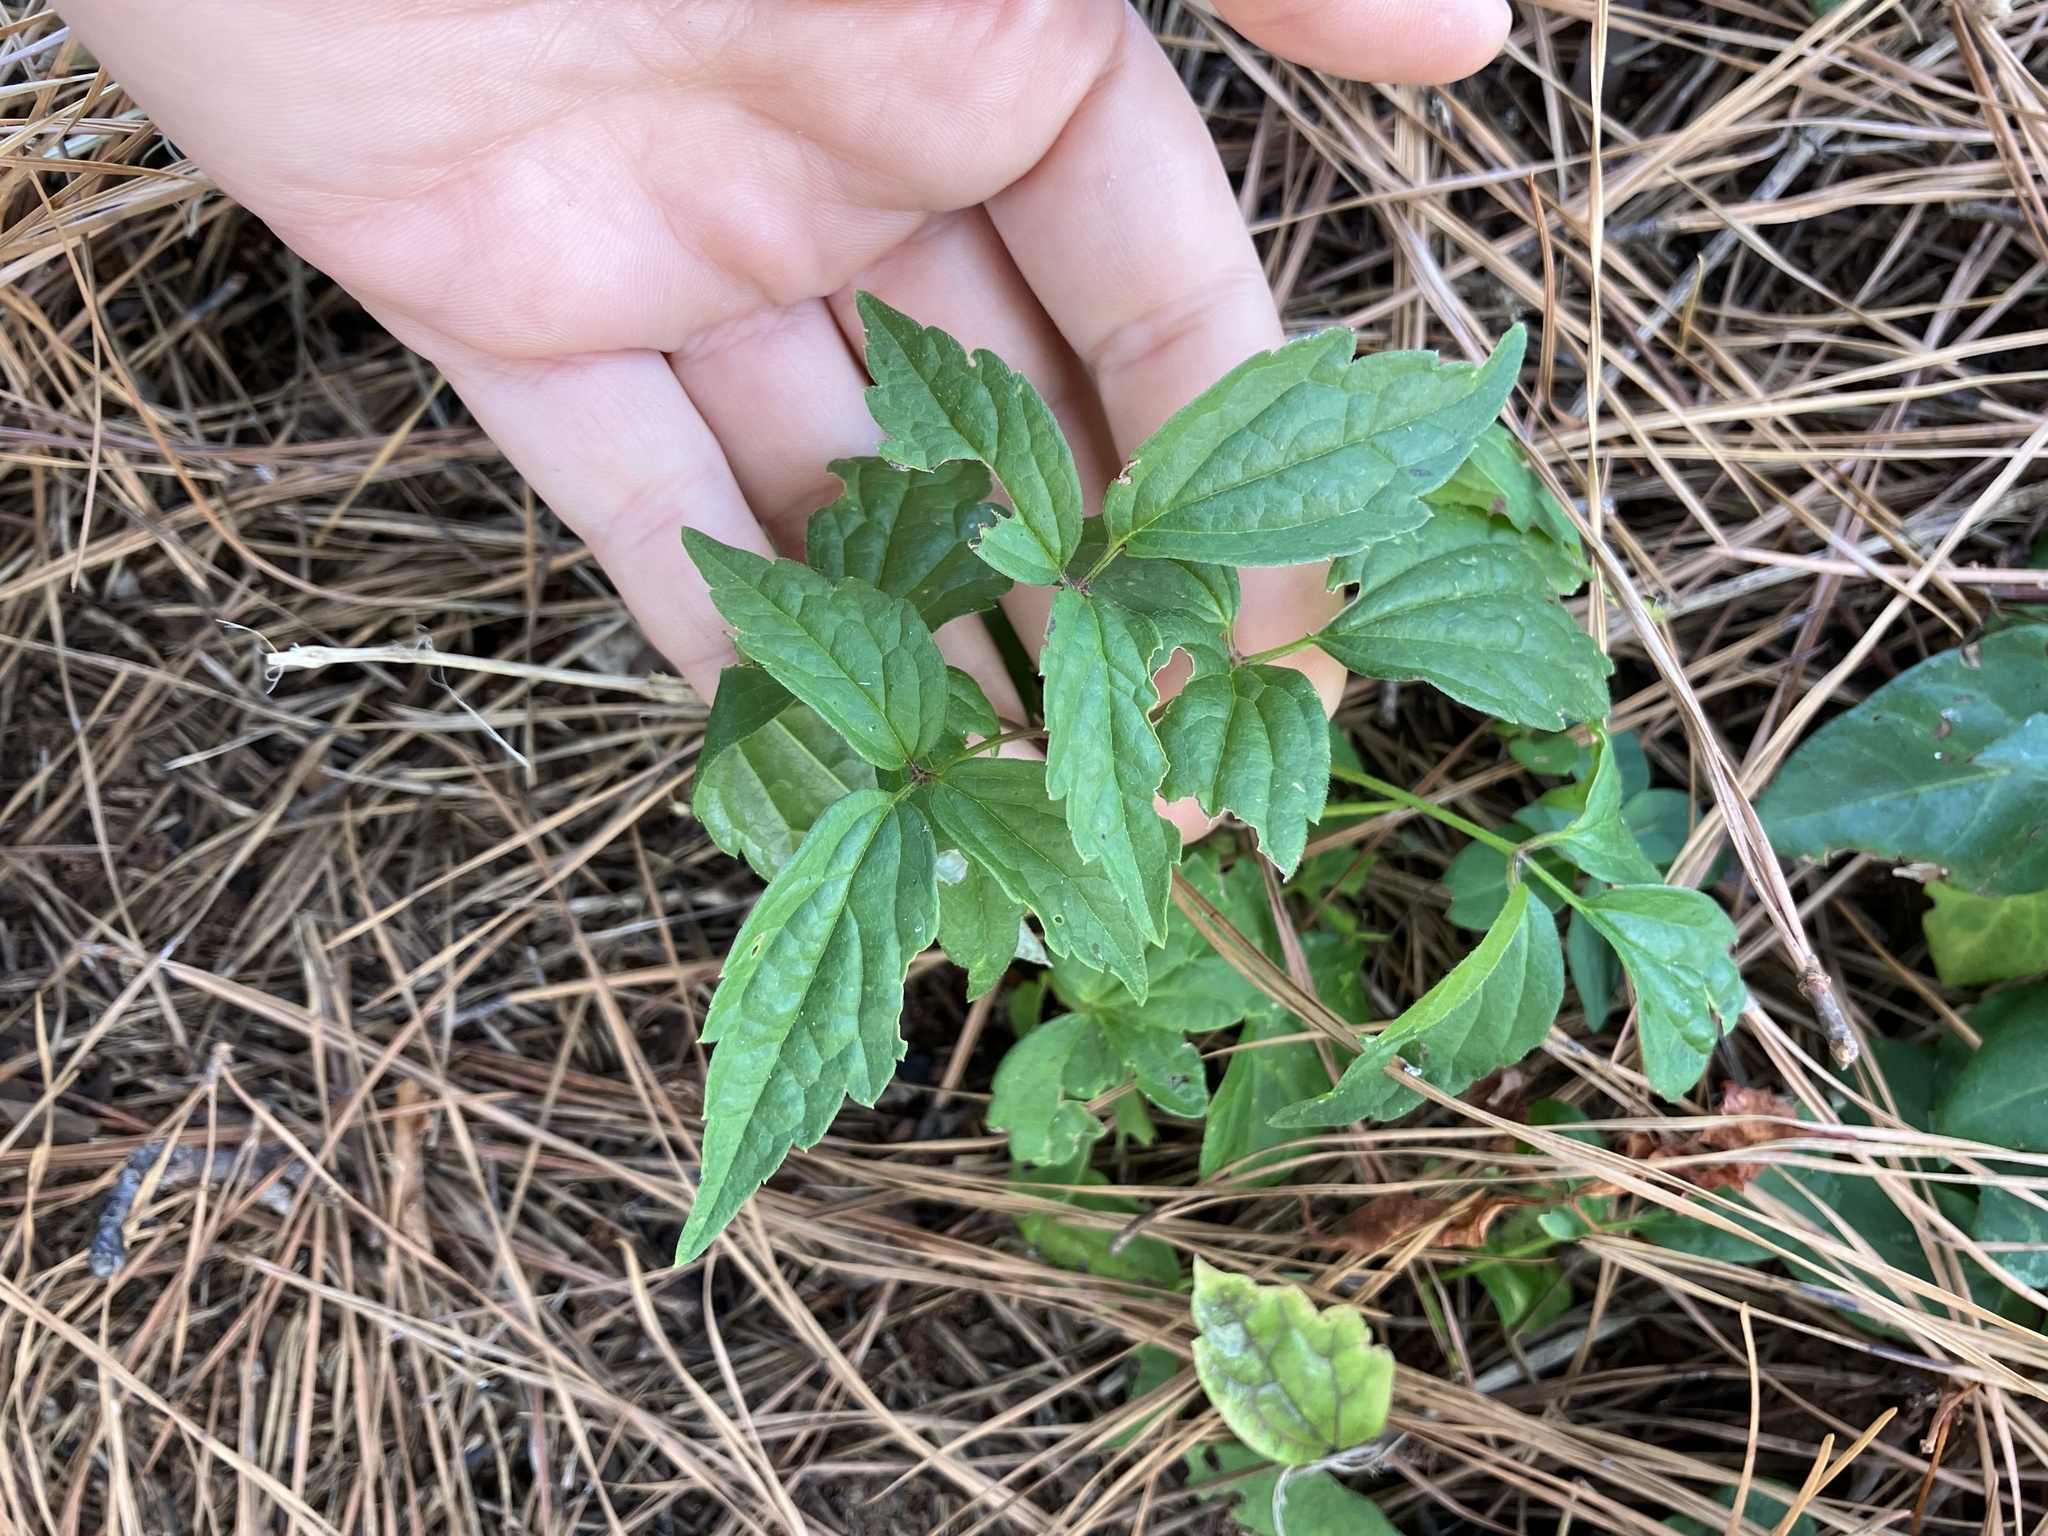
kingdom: Plantae
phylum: Tracheophyta
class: Magnoliopsida
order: Ranunculales
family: Ranunculaceae
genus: Clematis
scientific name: Clematis virginiana
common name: Virgin's-bower
